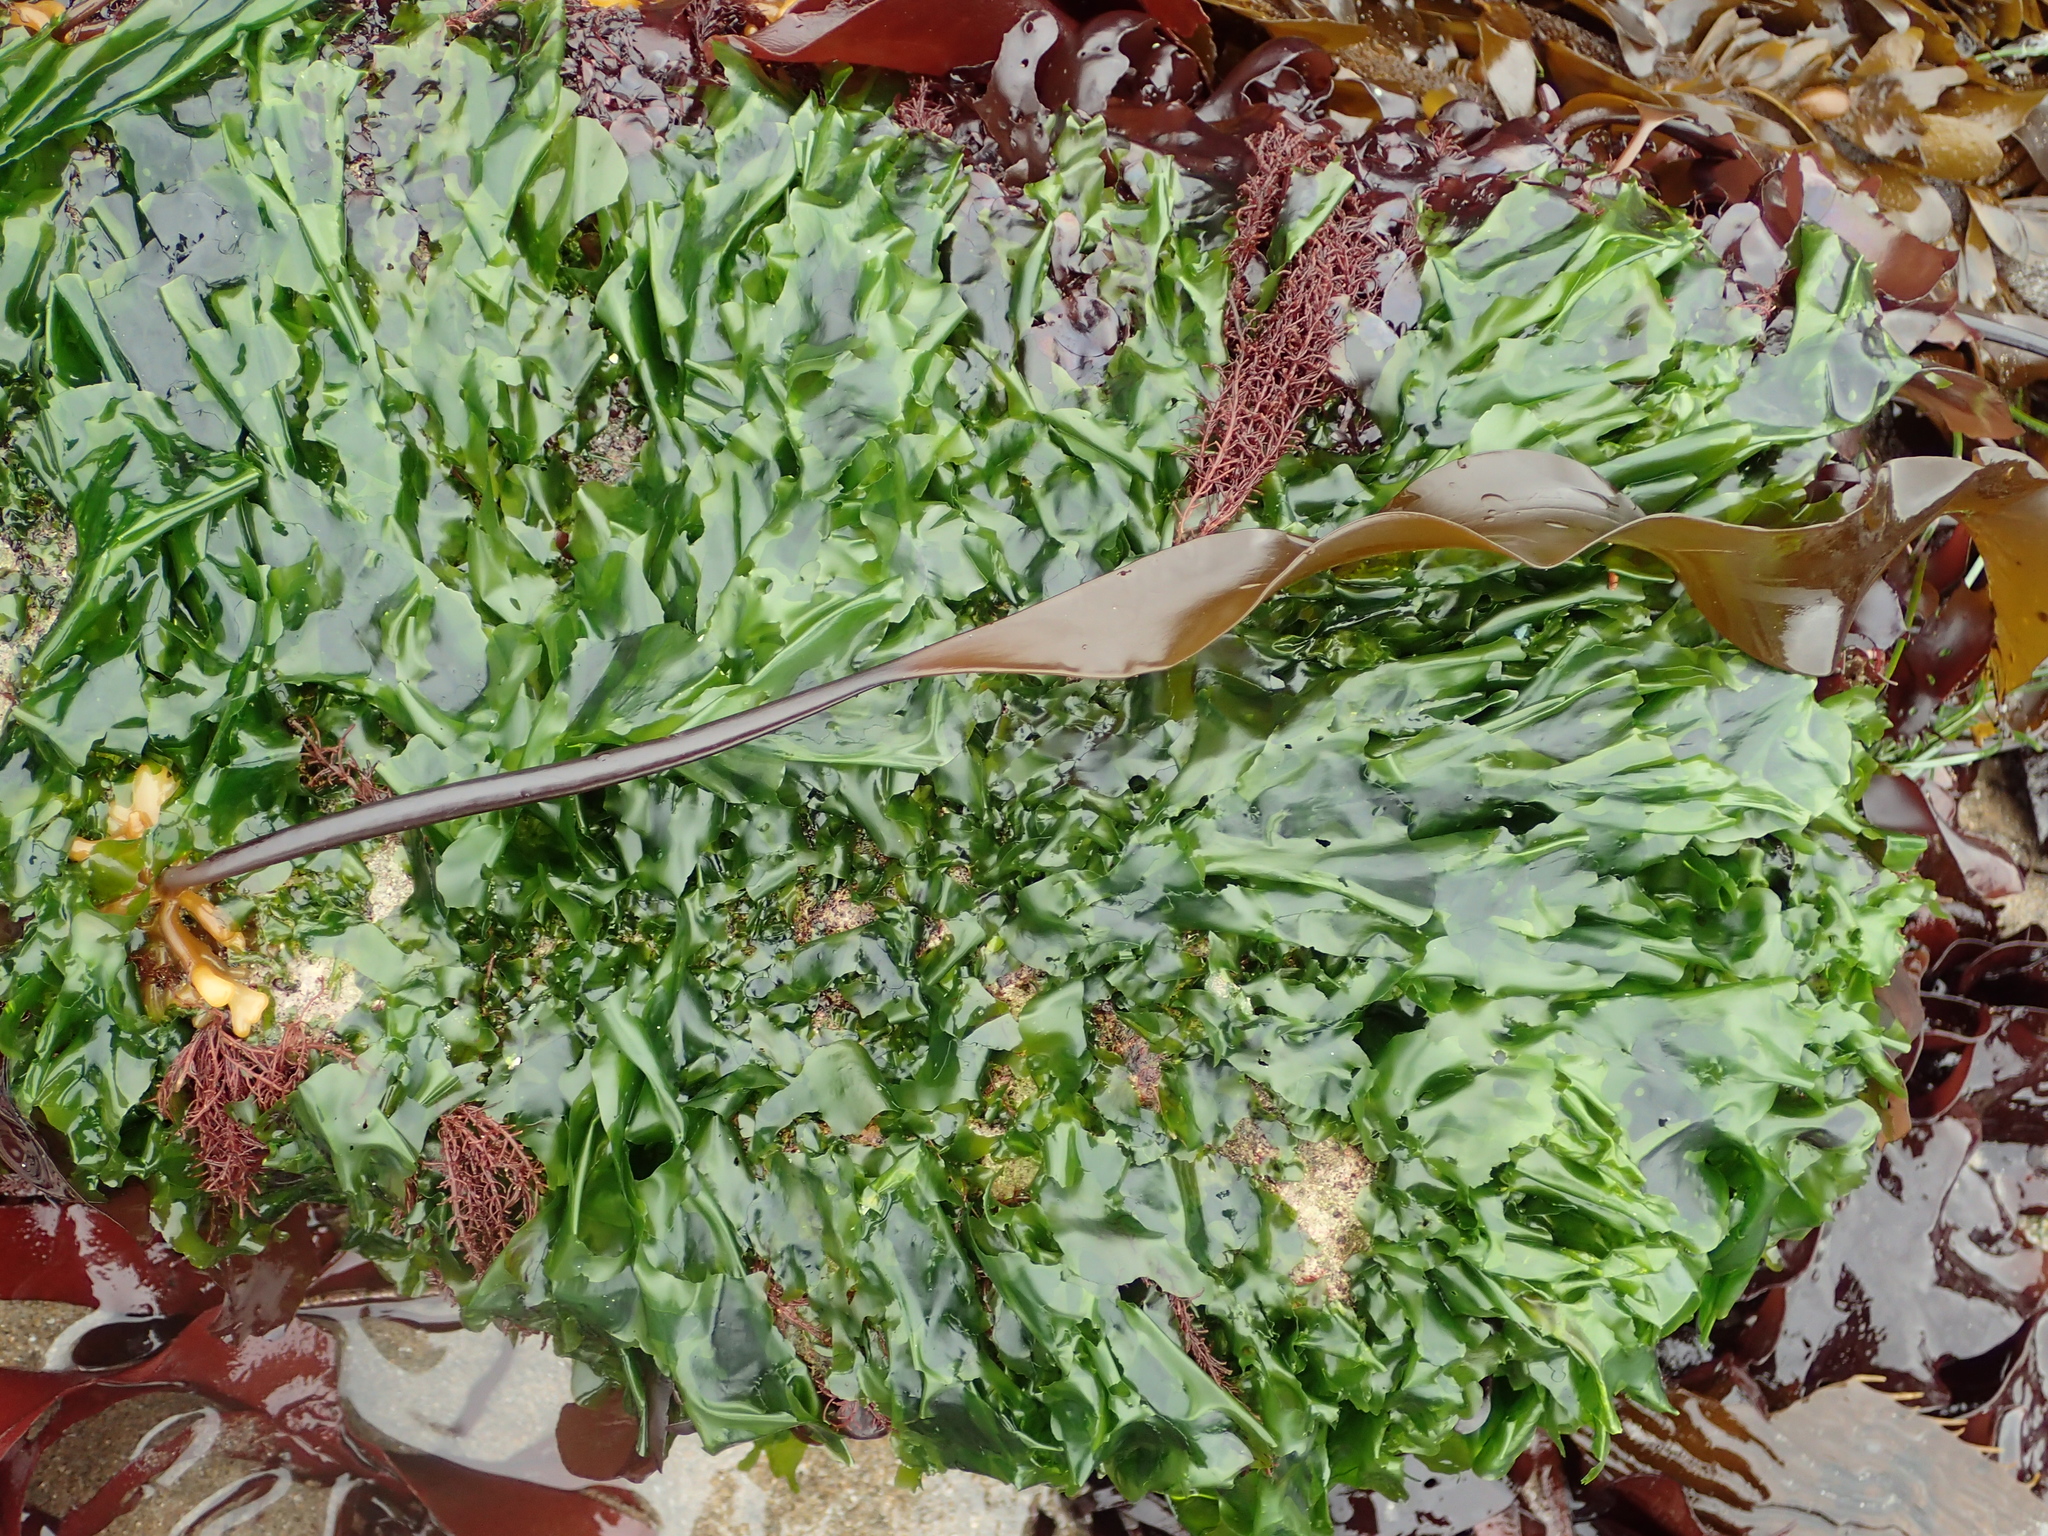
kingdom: Chromista
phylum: Ochrophyta
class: Phaeophyceae
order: Laminariales
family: Laminariaceae
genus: Laminaria
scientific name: Laminaria sinclairii
